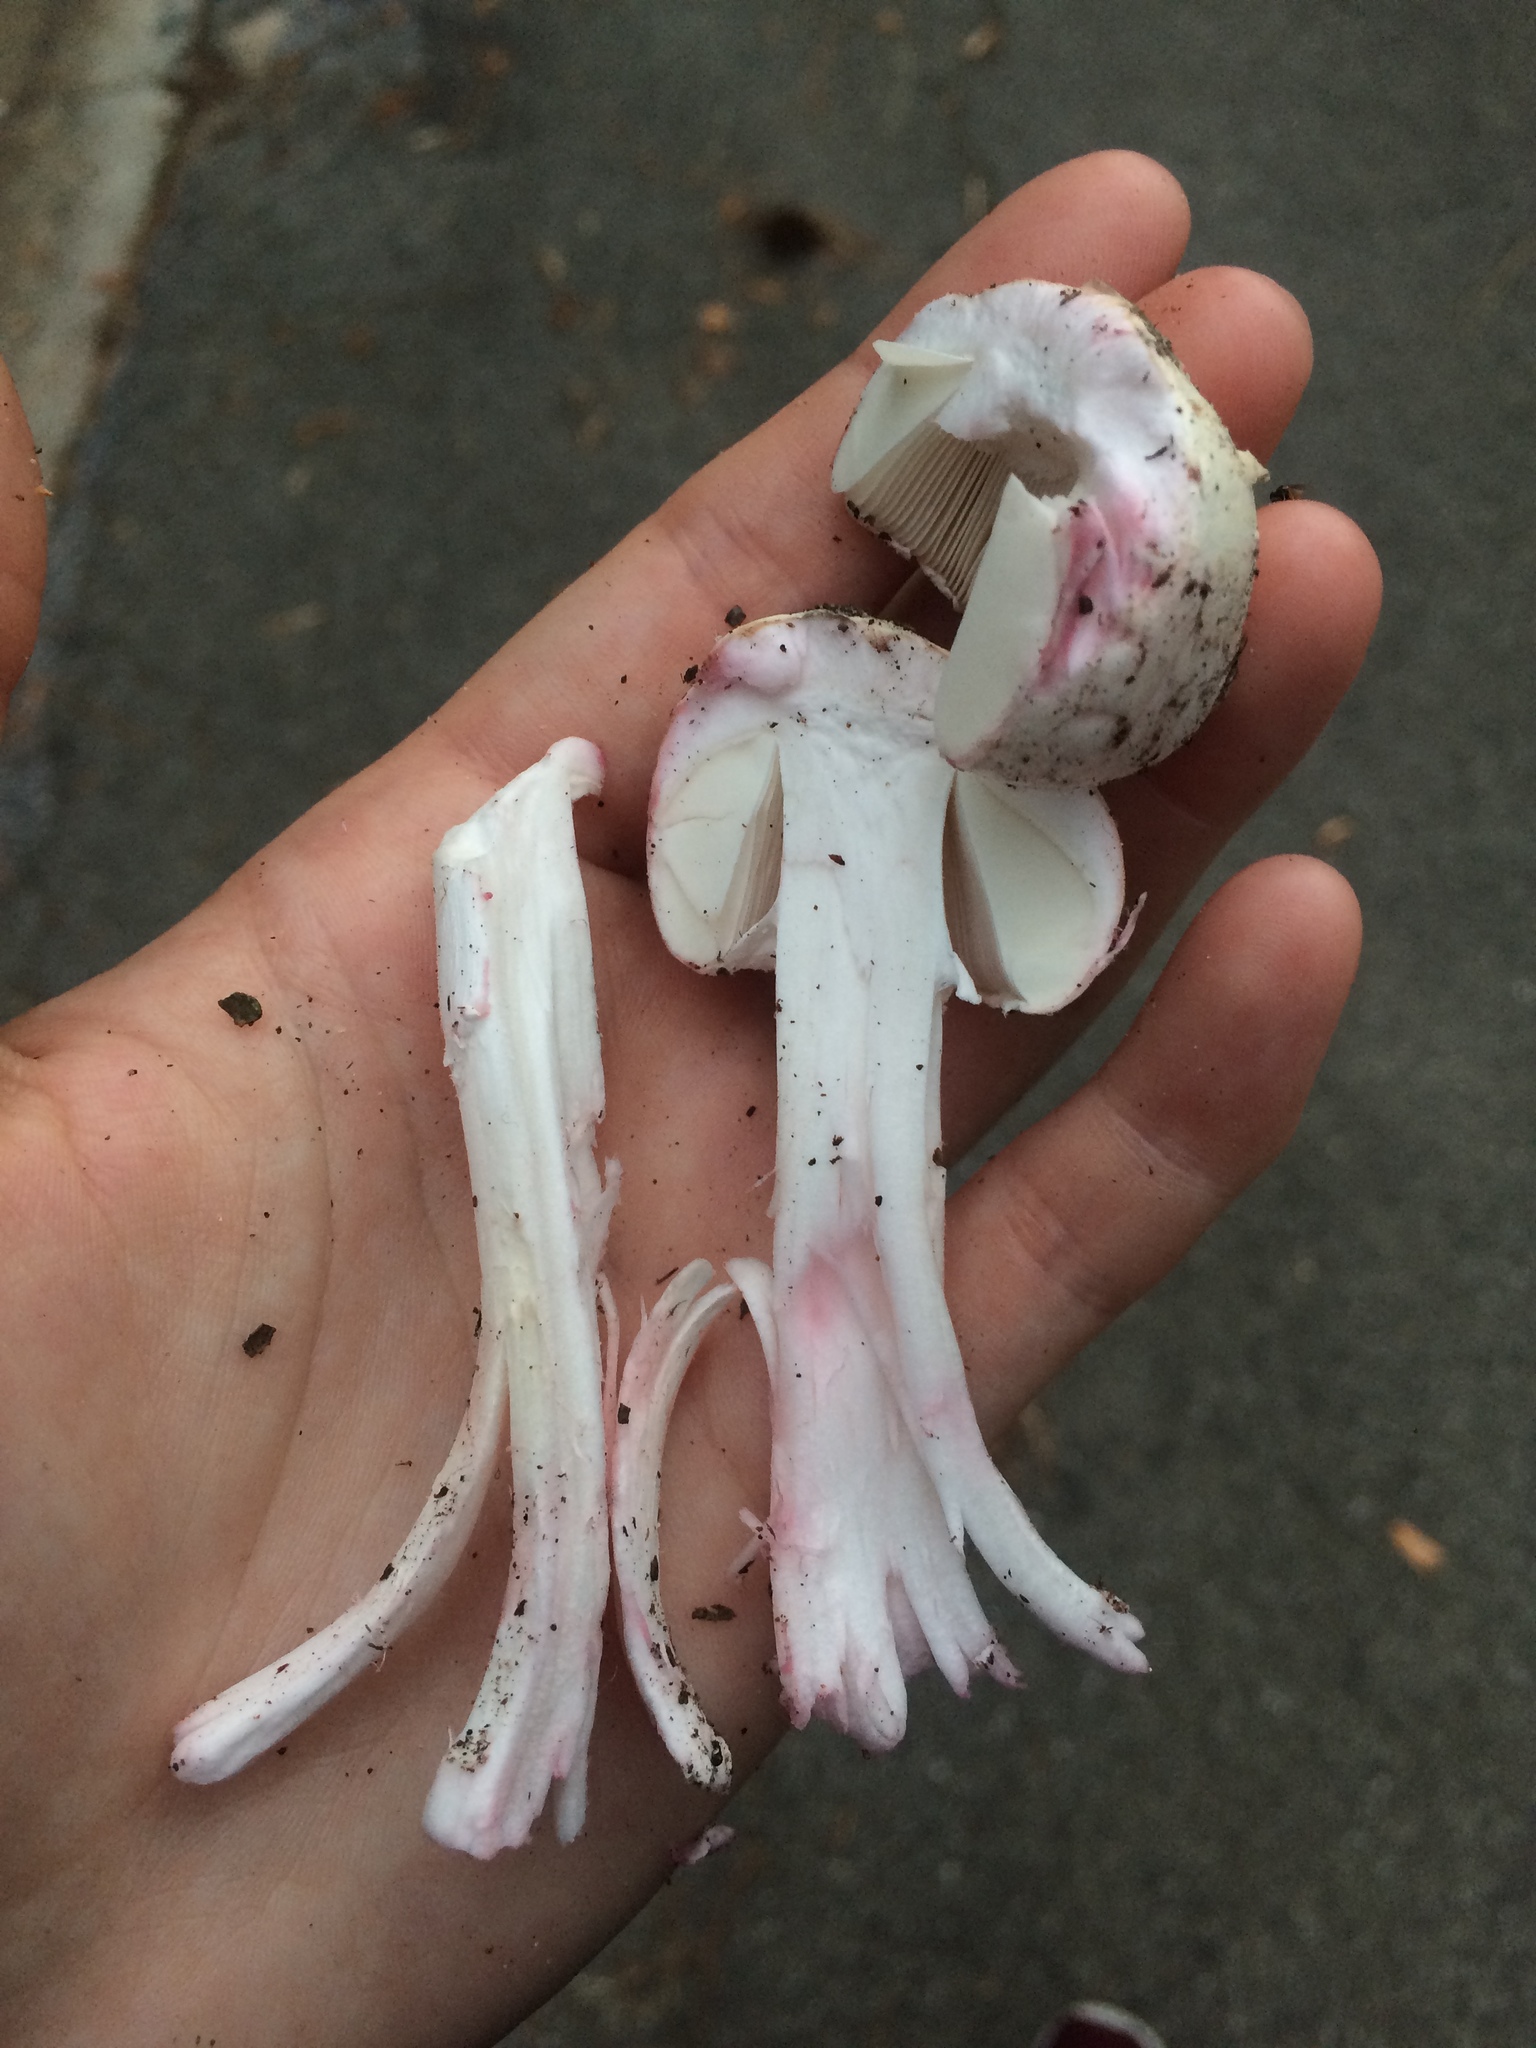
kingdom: Fungi
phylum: Basidiomycota
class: Agaricomycetes
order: Agaricales
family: Amanitaceae
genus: Amanita
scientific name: Amanita mutabilis
